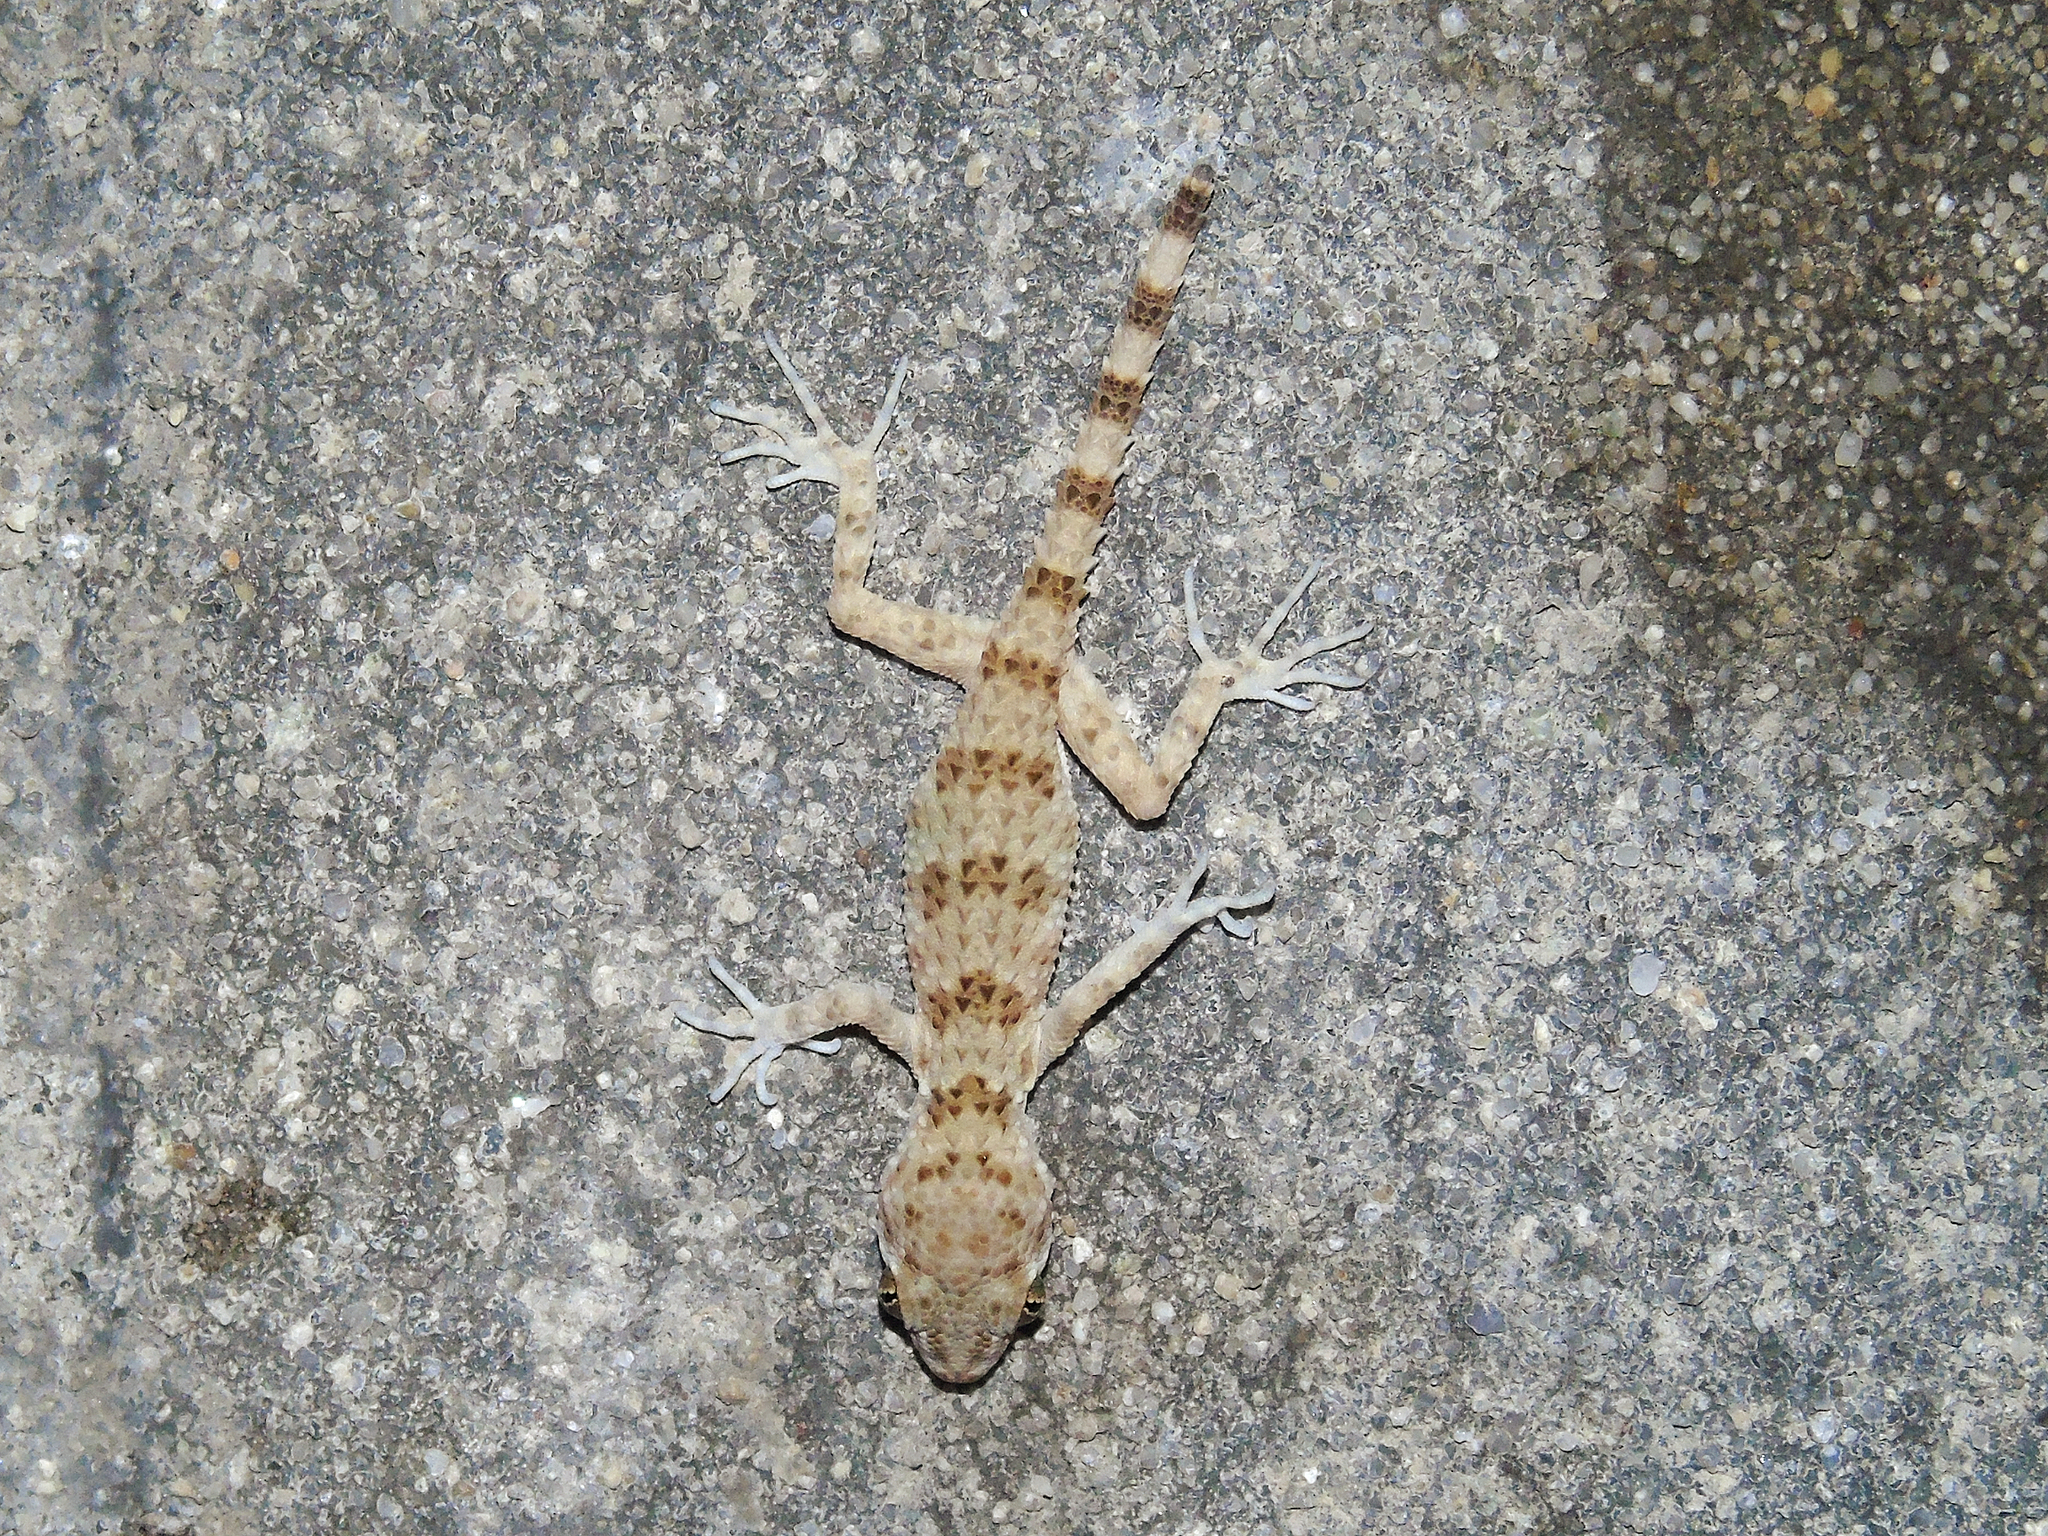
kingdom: Animalia
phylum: Chordata
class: Squamata
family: Gekkonidae
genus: Tenuidactylus
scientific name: Tenuidactylus caspius
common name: Caspian bent-toed gecko
